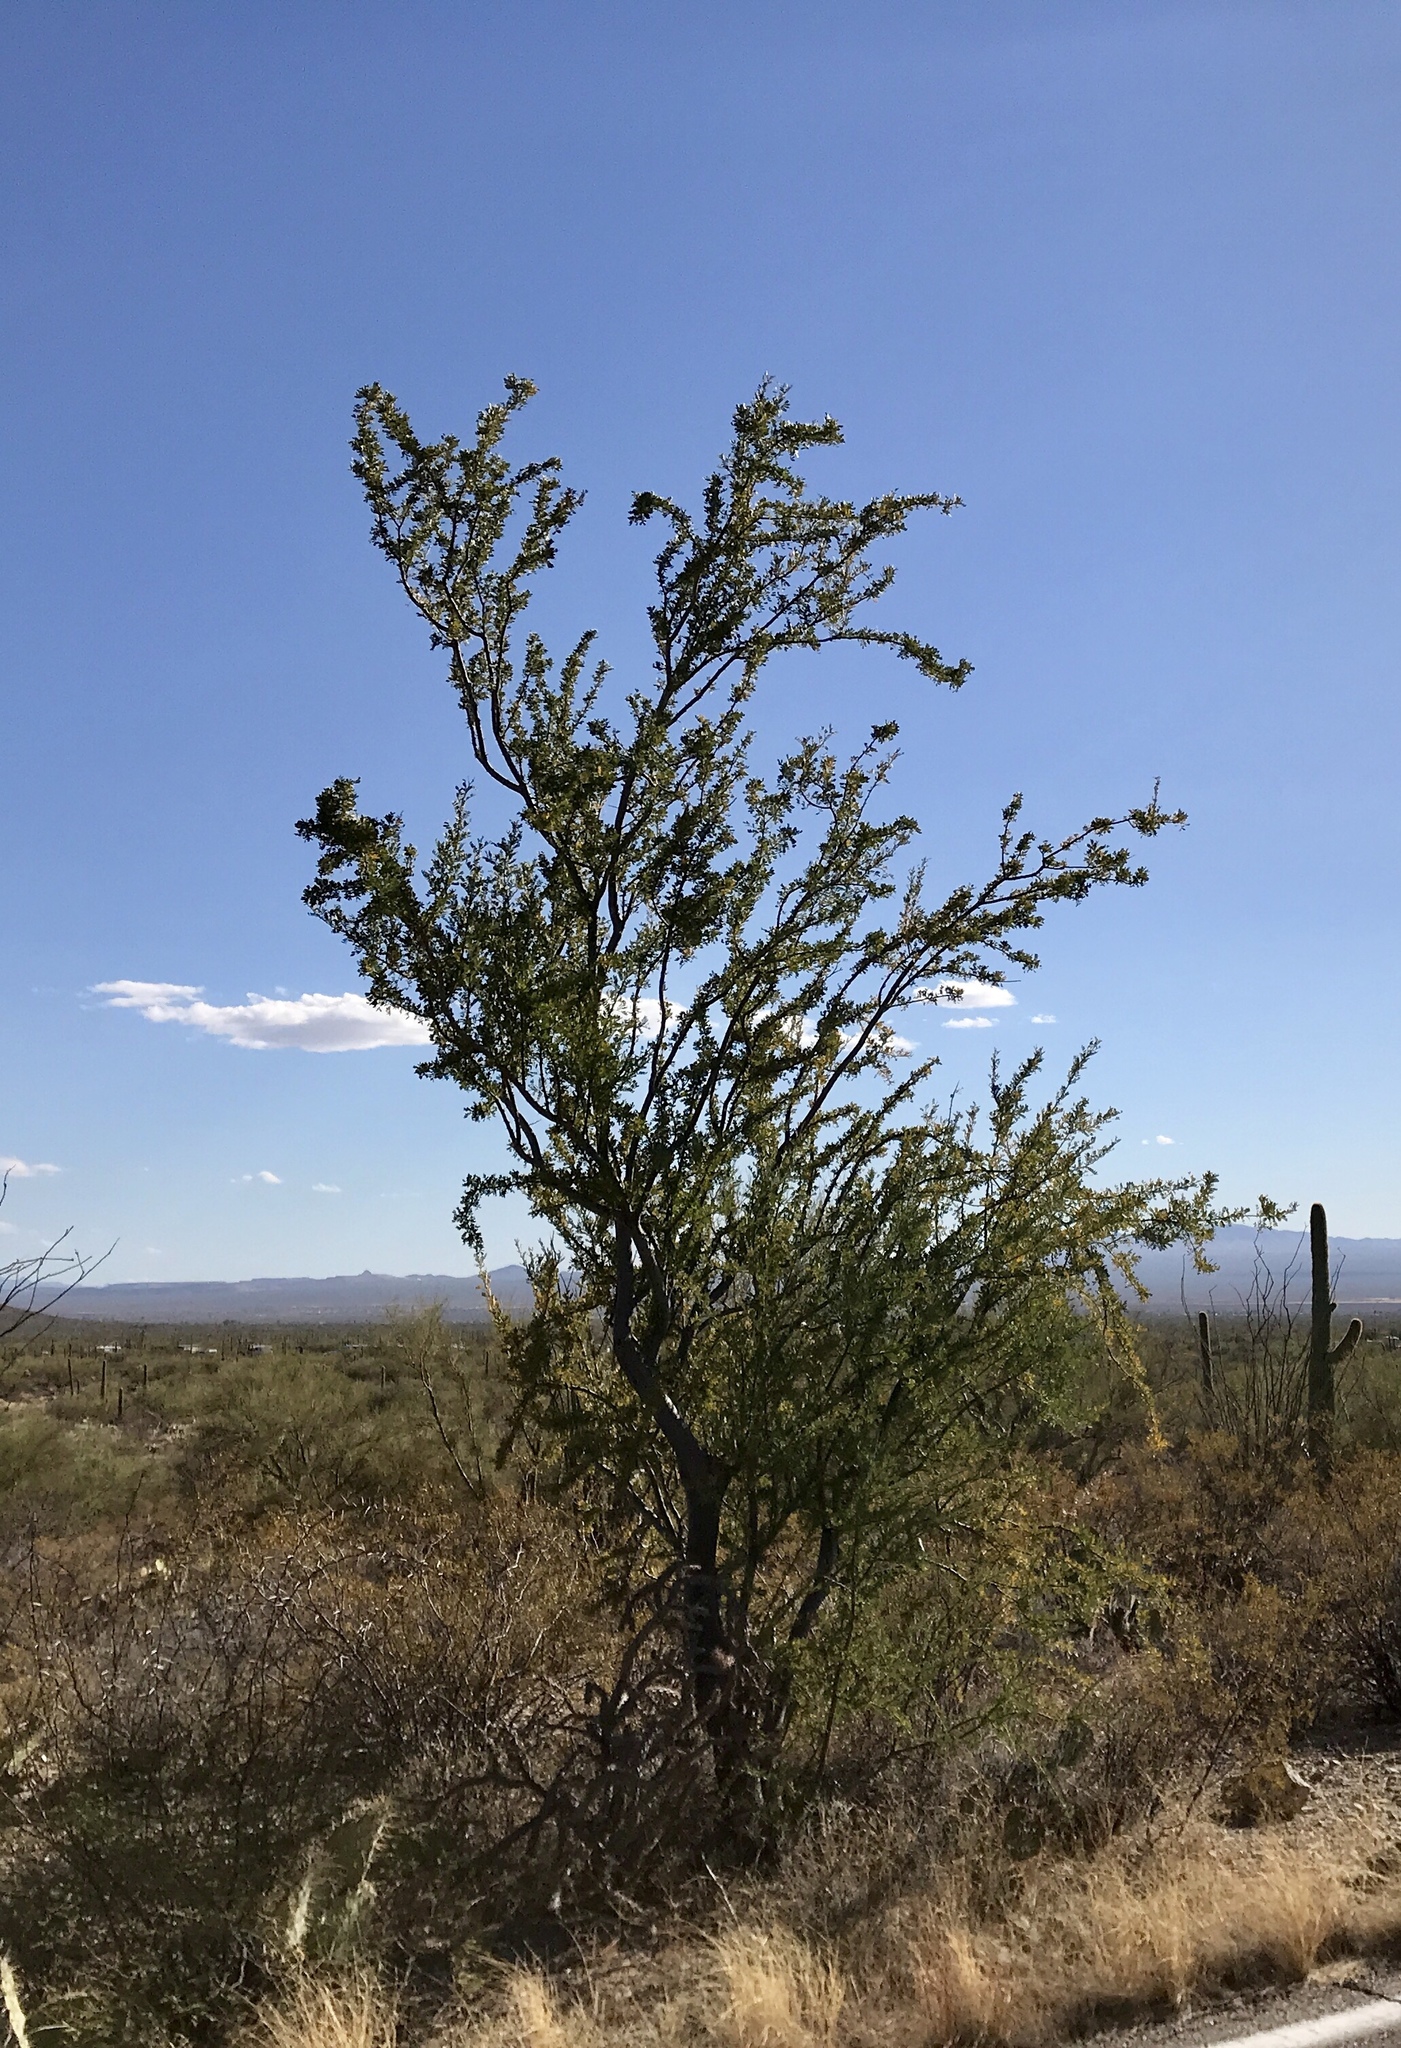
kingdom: Plantae
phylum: Tracheophyta
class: Magnoliopsida
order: Fabales
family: Fabaceae
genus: Olneya
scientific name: Olneya tesota
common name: Desert ironwood
